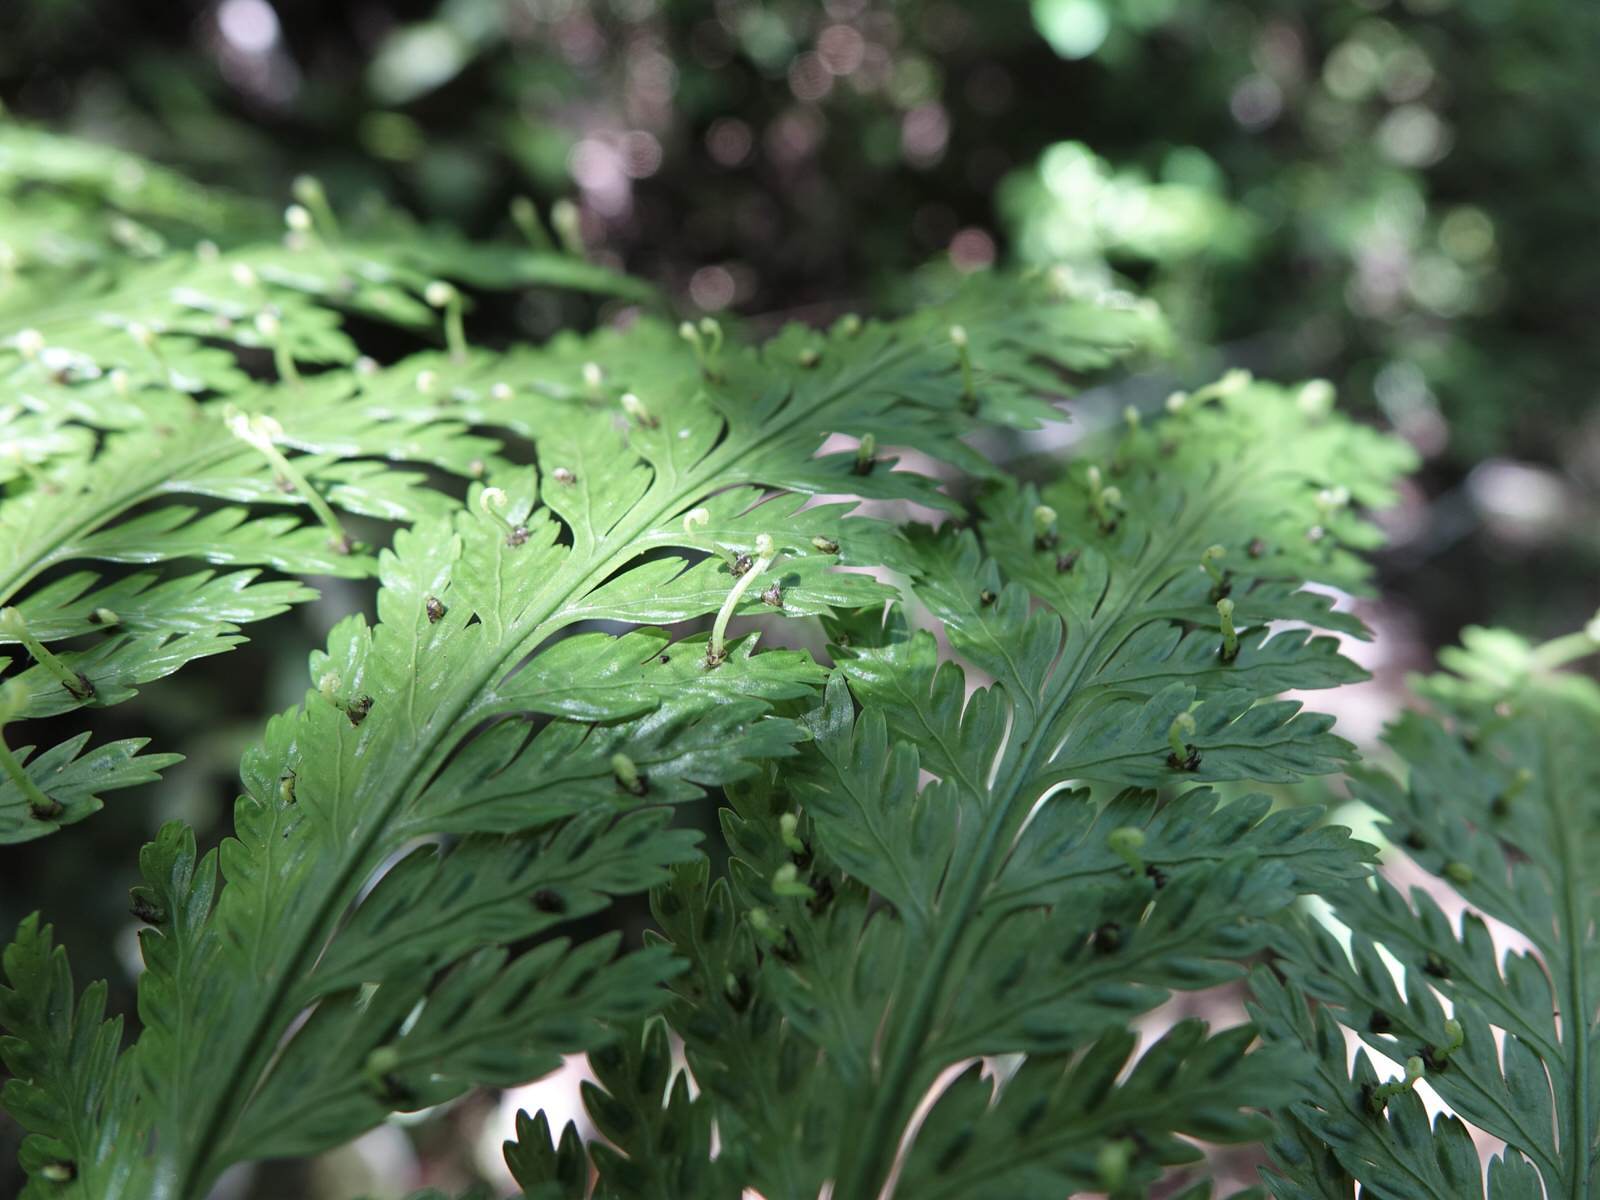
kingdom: Plantae
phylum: Tracheophyta
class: Polypodiopsida
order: Polypodiales
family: Aspleniaceae
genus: Asplenium
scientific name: Asplenium bulbiferum
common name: Mother fern
